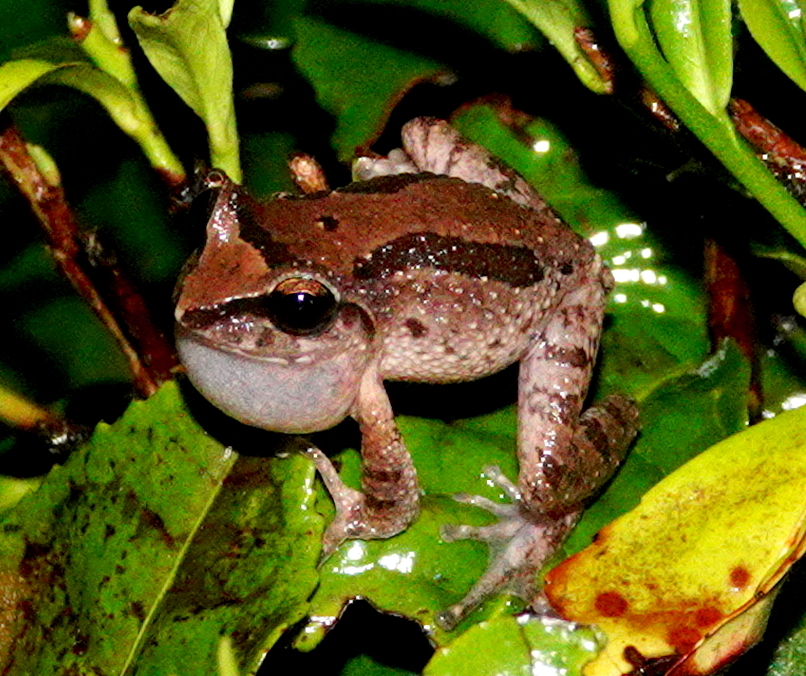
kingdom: Animalia
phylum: Chordata
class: Amphibia
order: Anura
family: Rhacophoridae
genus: Pseudophilautus
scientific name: Pseudophilautus microtympanum
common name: Small-eared shrub frog
